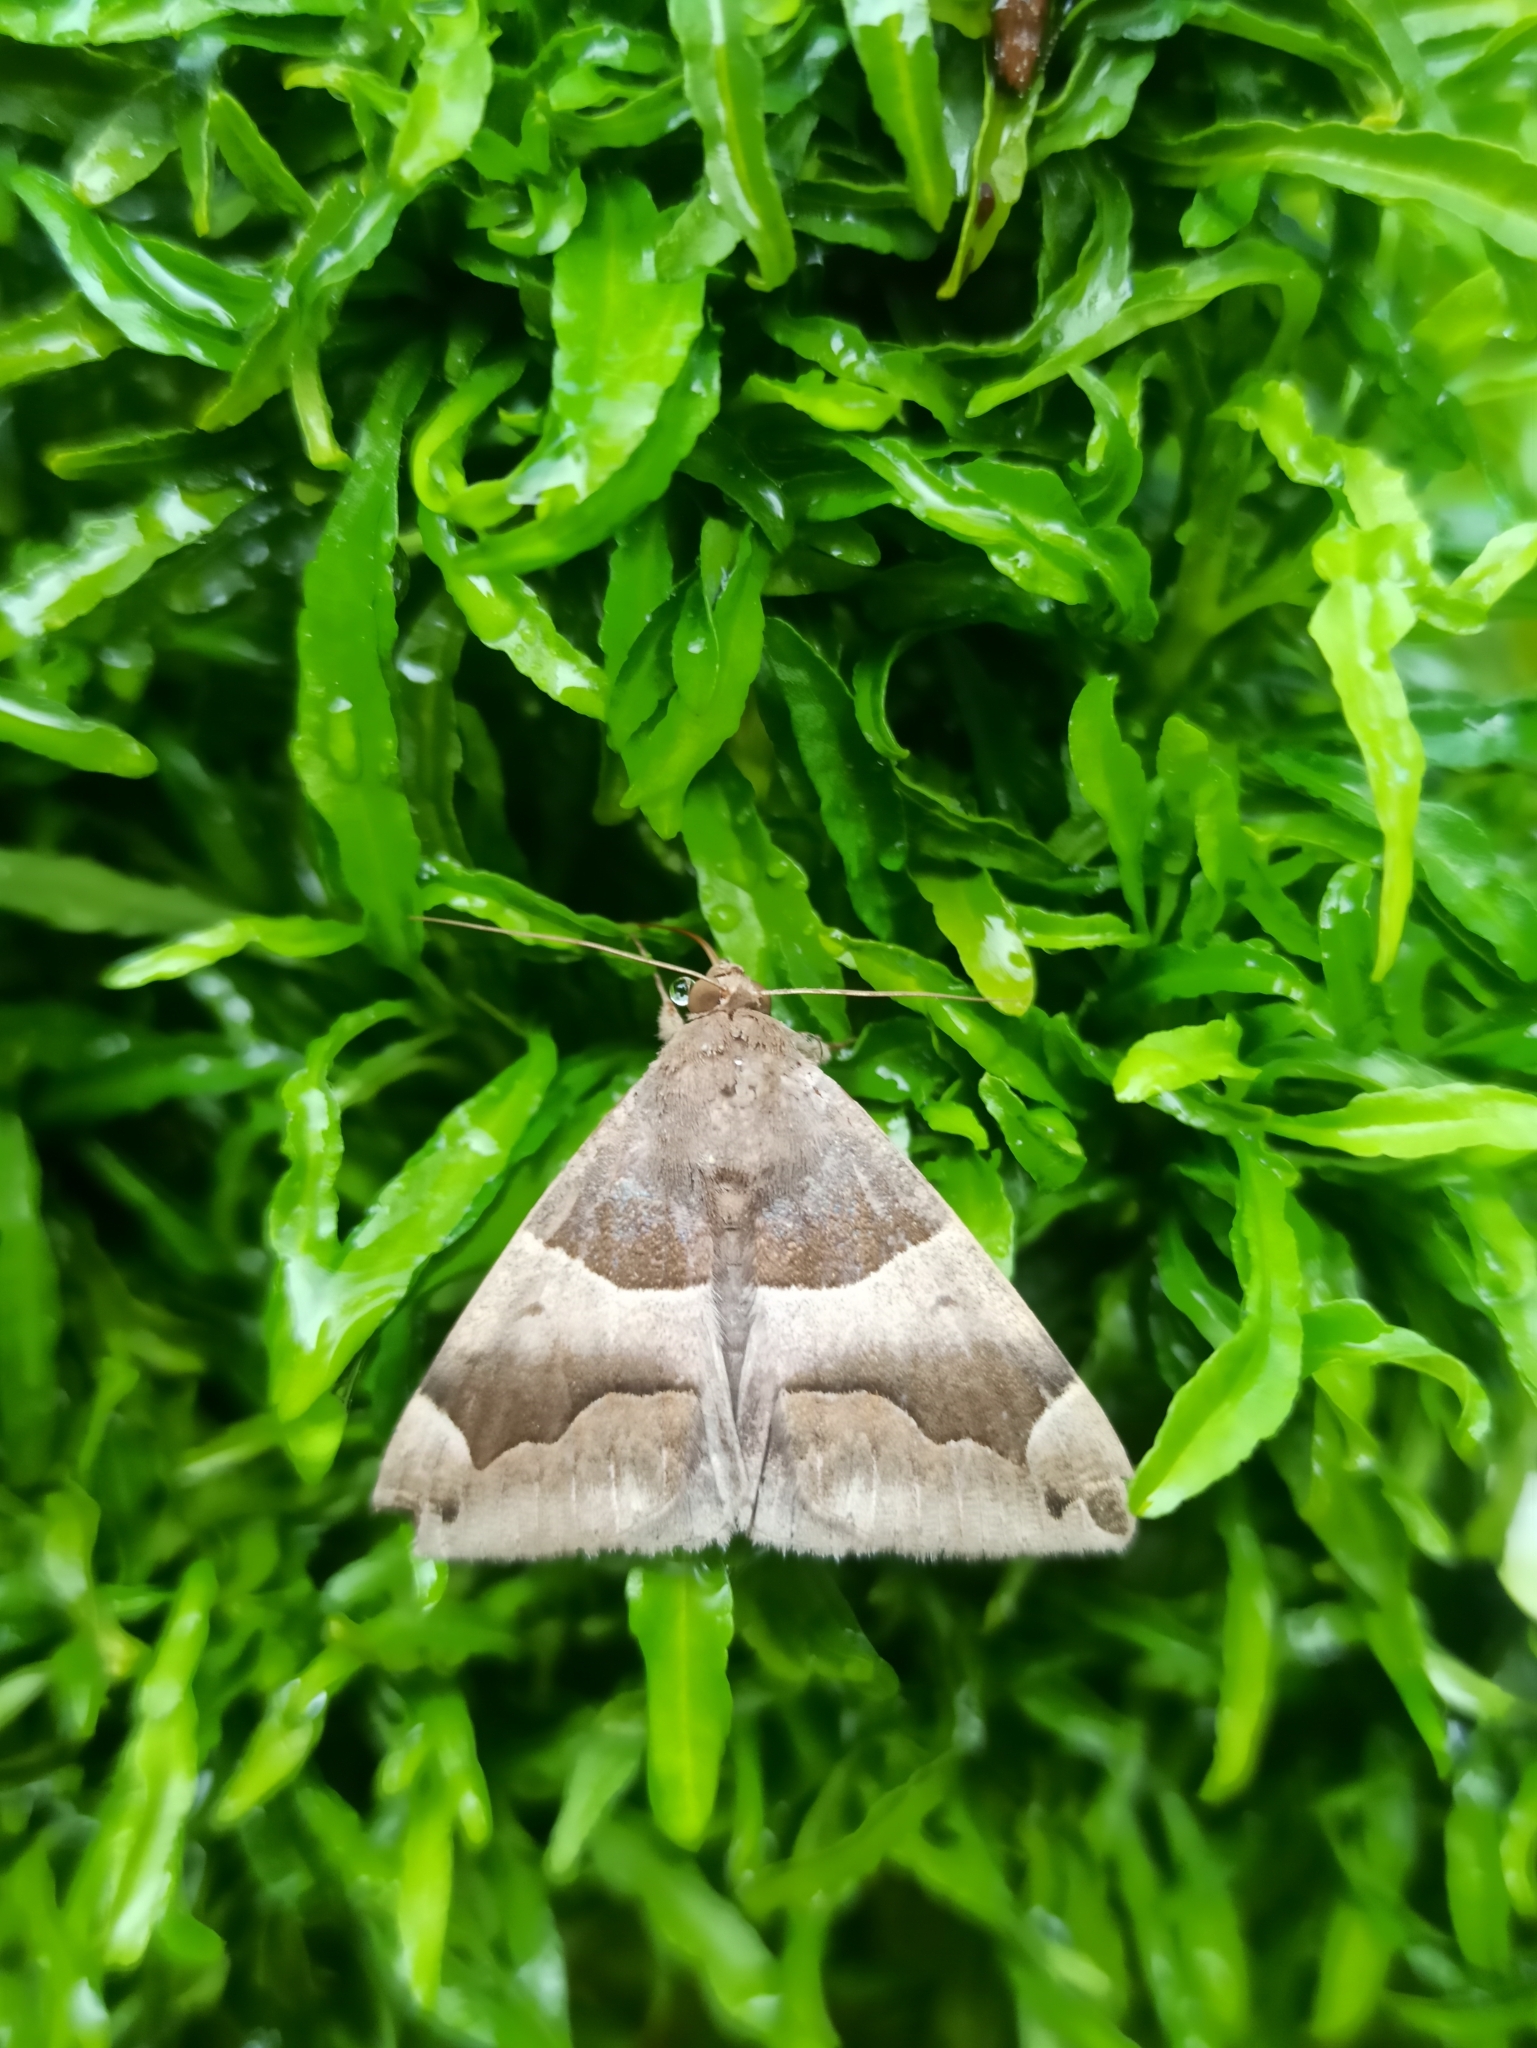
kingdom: Animalia
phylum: Arthropoda
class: Insecta
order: Lepidoptera
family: Erebidae
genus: Dysgonia
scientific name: Dysgonia stuposa
